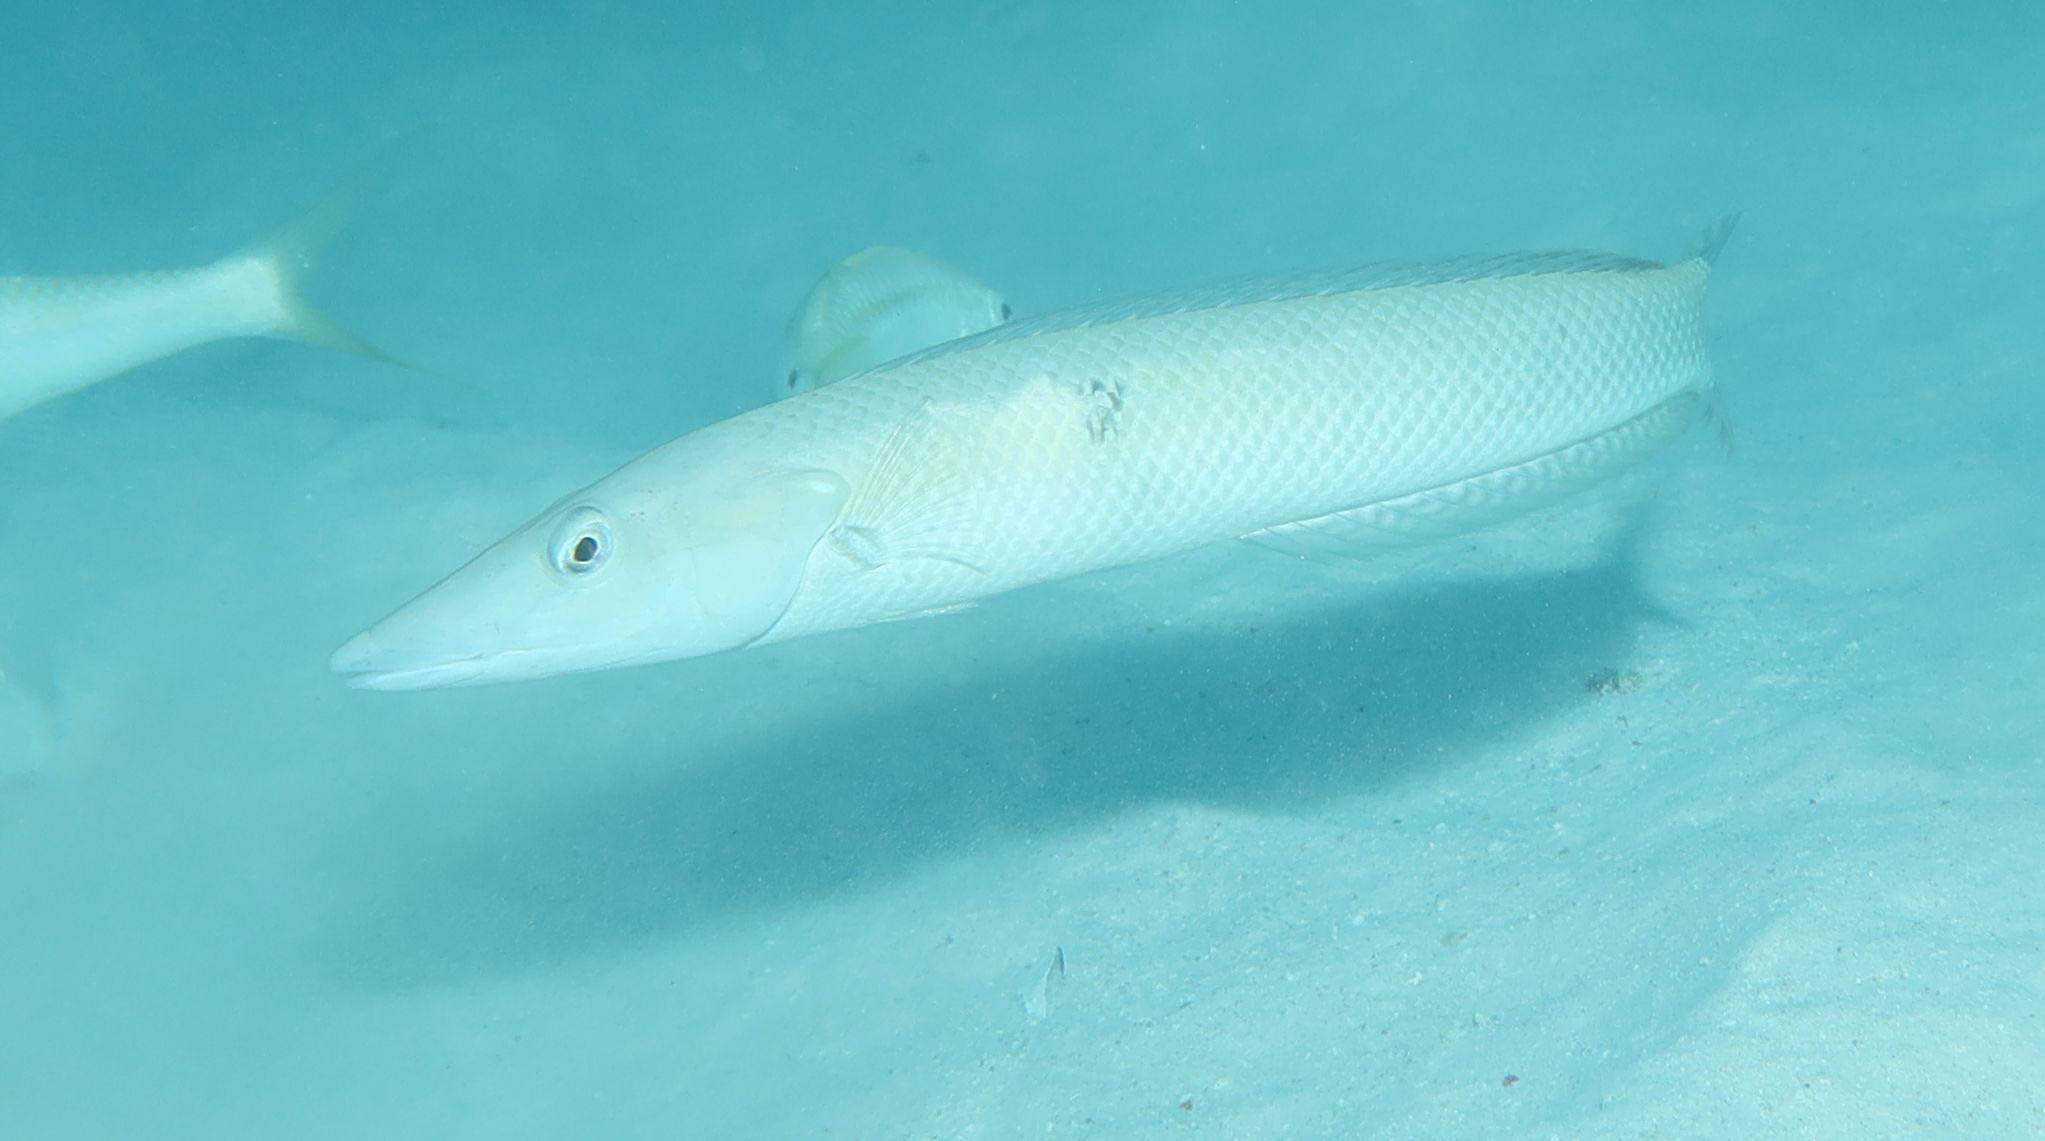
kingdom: Animalia
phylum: Chordata
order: Perciformes
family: Labridae
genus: Cheilio
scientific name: Cheilio inermis
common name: Cigar wrasse
